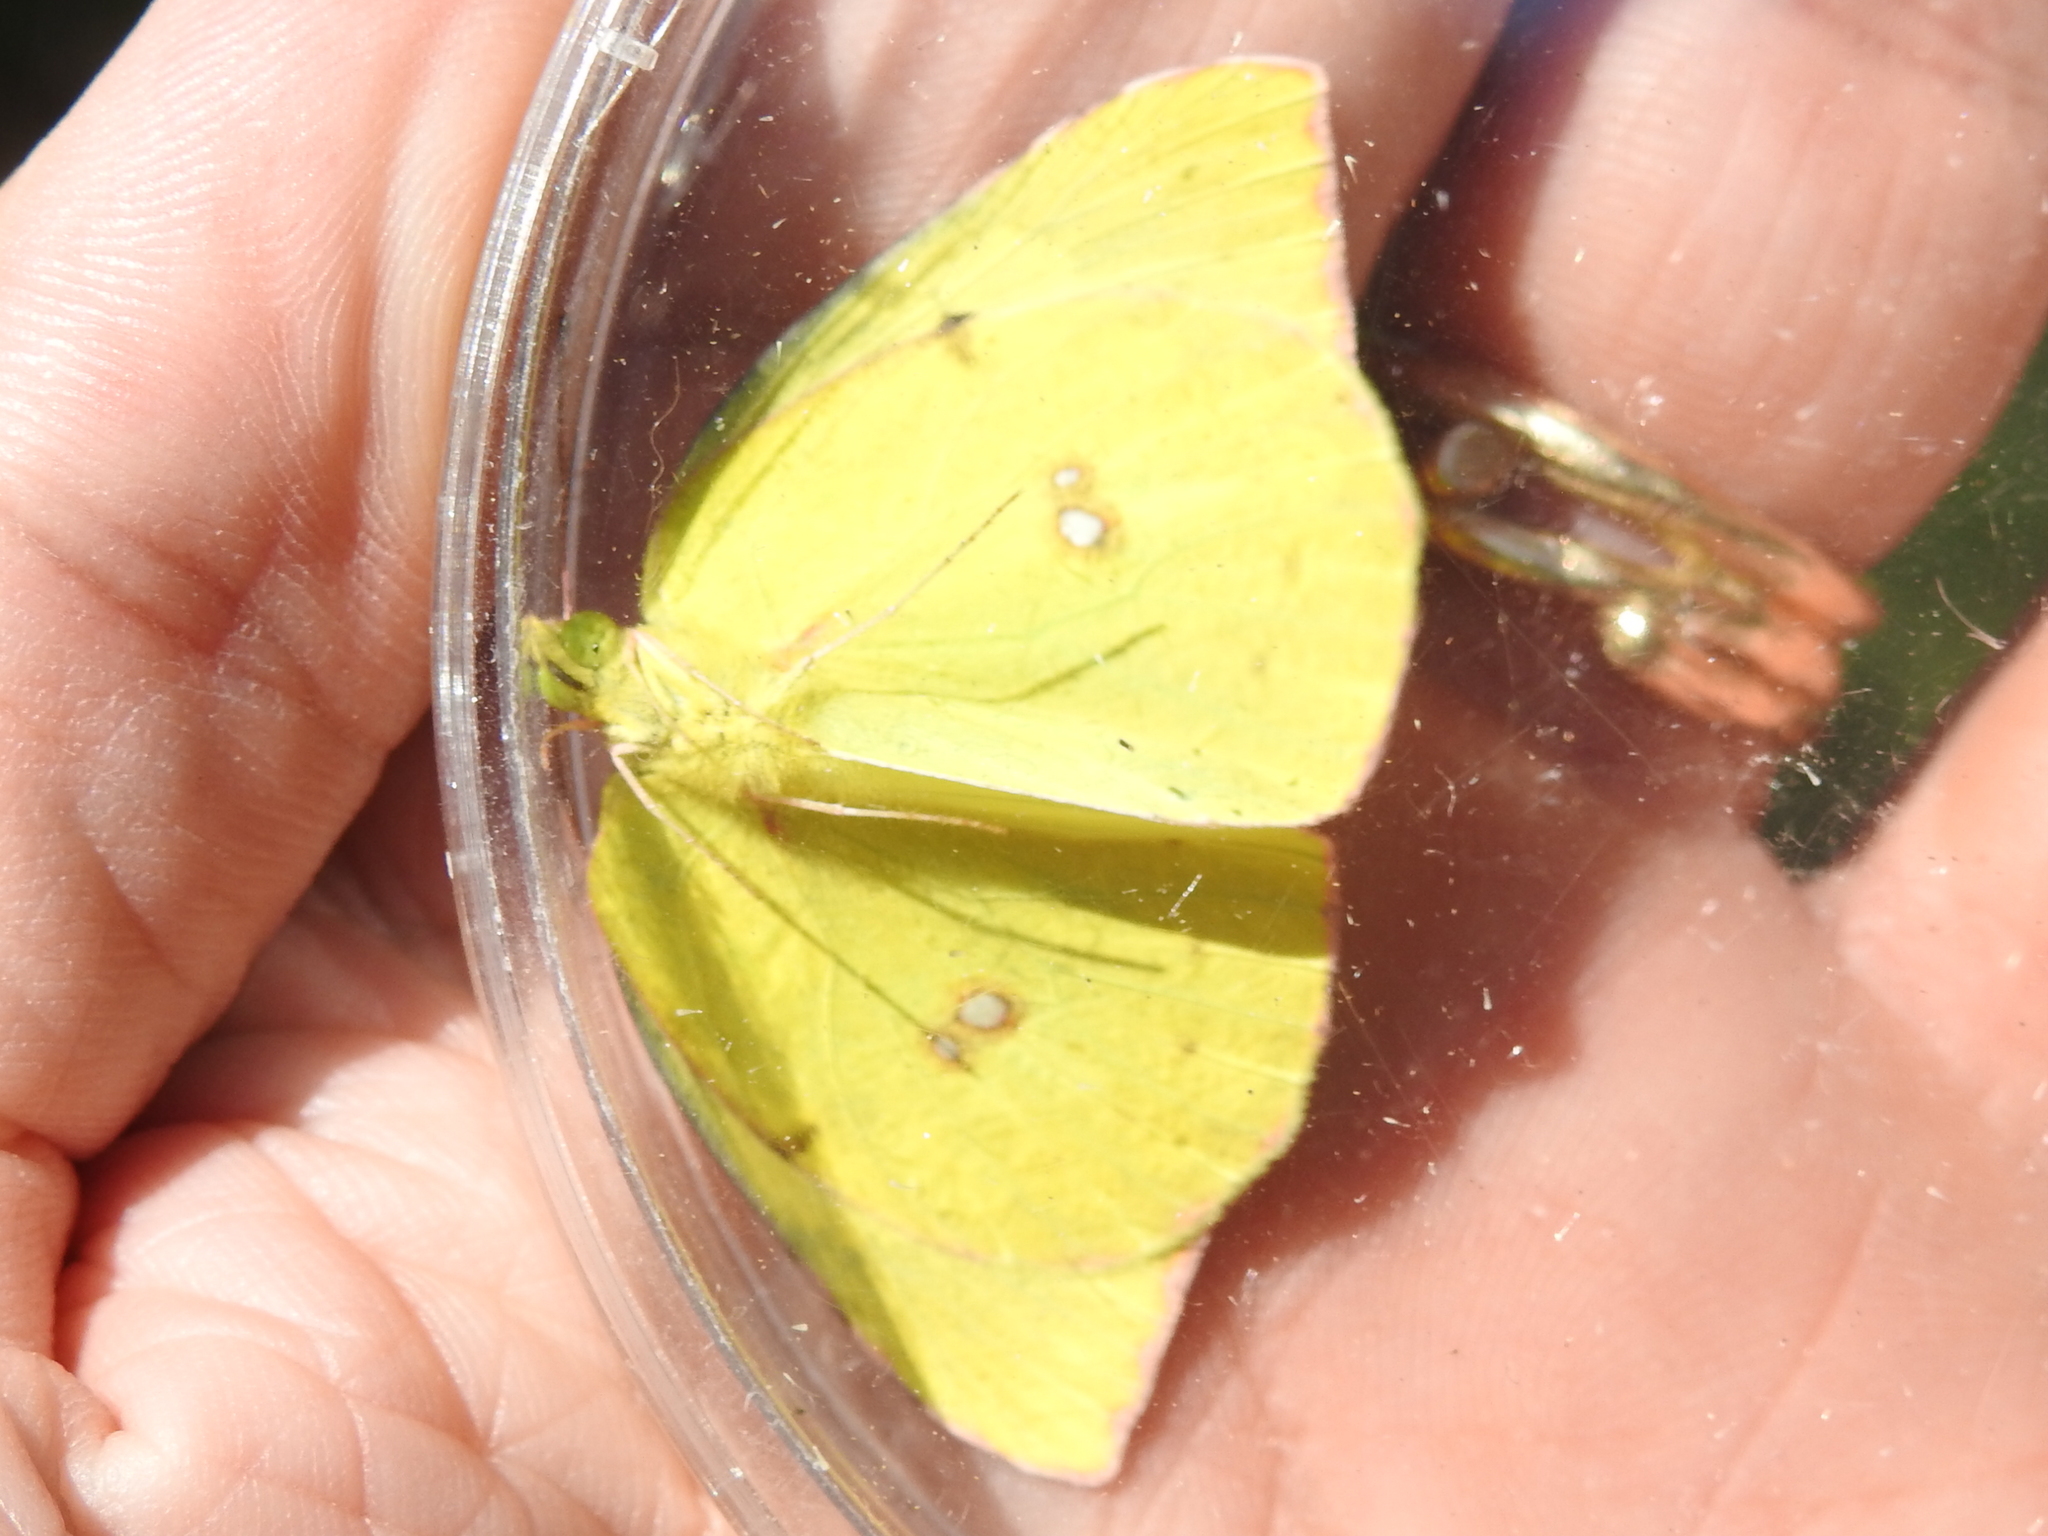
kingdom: Animalia
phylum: Arthropoda
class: Insecta
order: Lepidoptera
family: Pieridae
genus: Zerene
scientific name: Zerene cesonia
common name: Southern dogface
